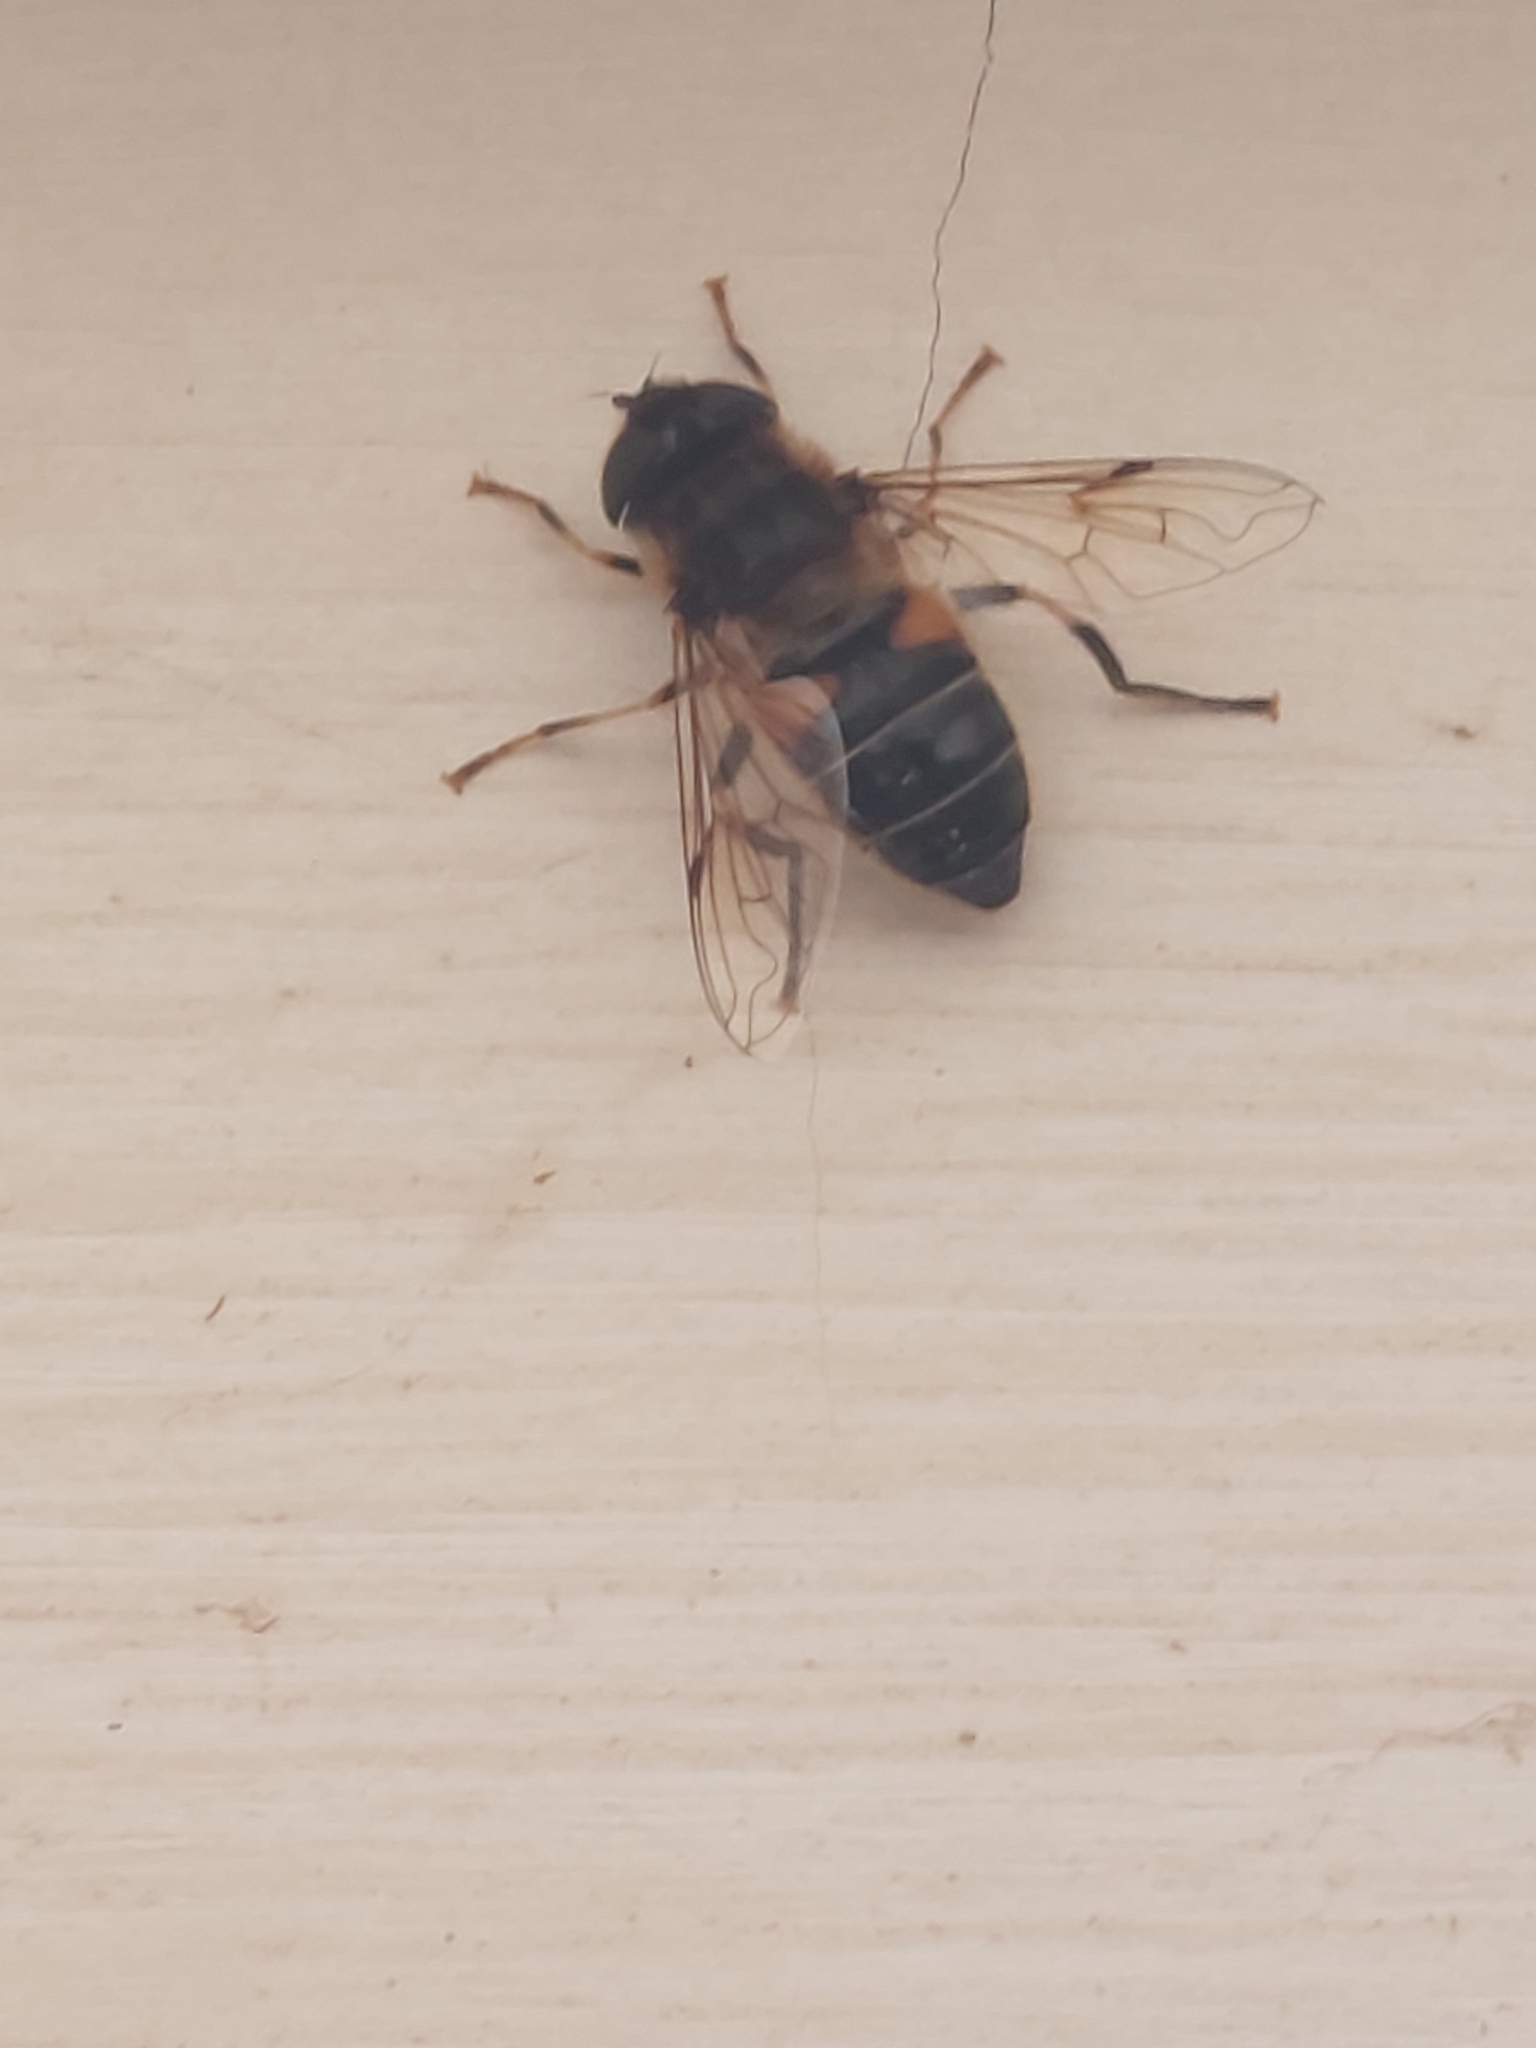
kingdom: Animalia
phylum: Arthropoda
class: Insecta
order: Diptera
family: Syrphidae
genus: Eristalis
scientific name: Eristalis pertinax
